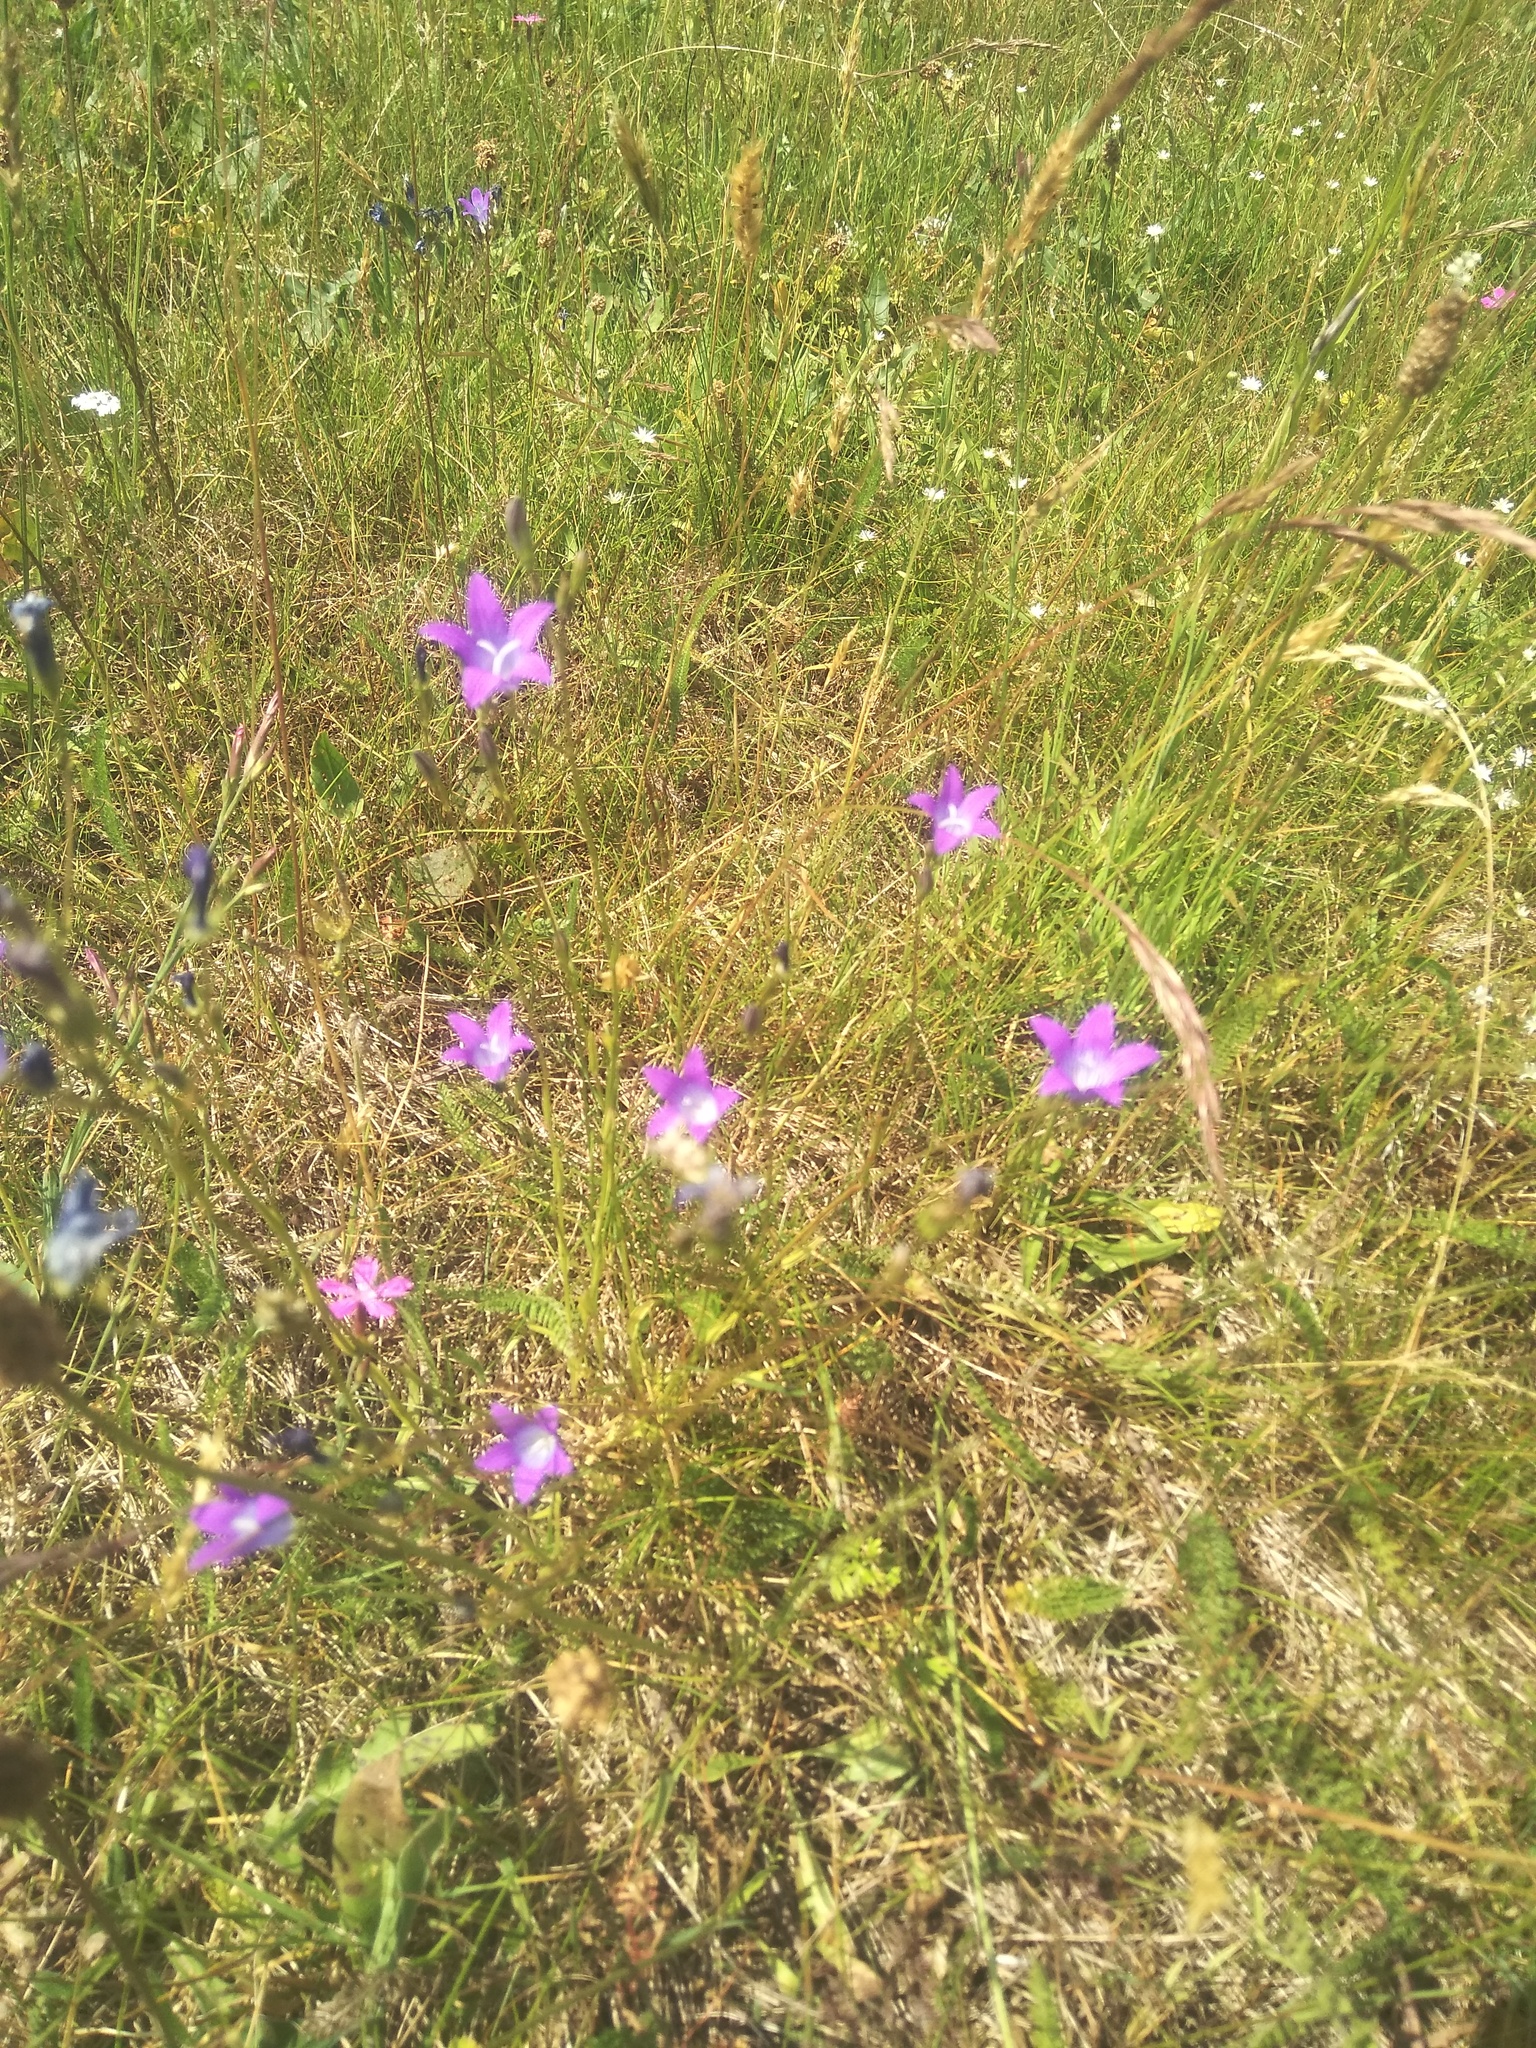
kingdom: Plantae
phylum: Tracheophyta
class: Magnoliopsida
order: Asterales
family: Campanulaceae
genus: Campanula
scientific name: Campanula patula
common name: Spreading bellflower
